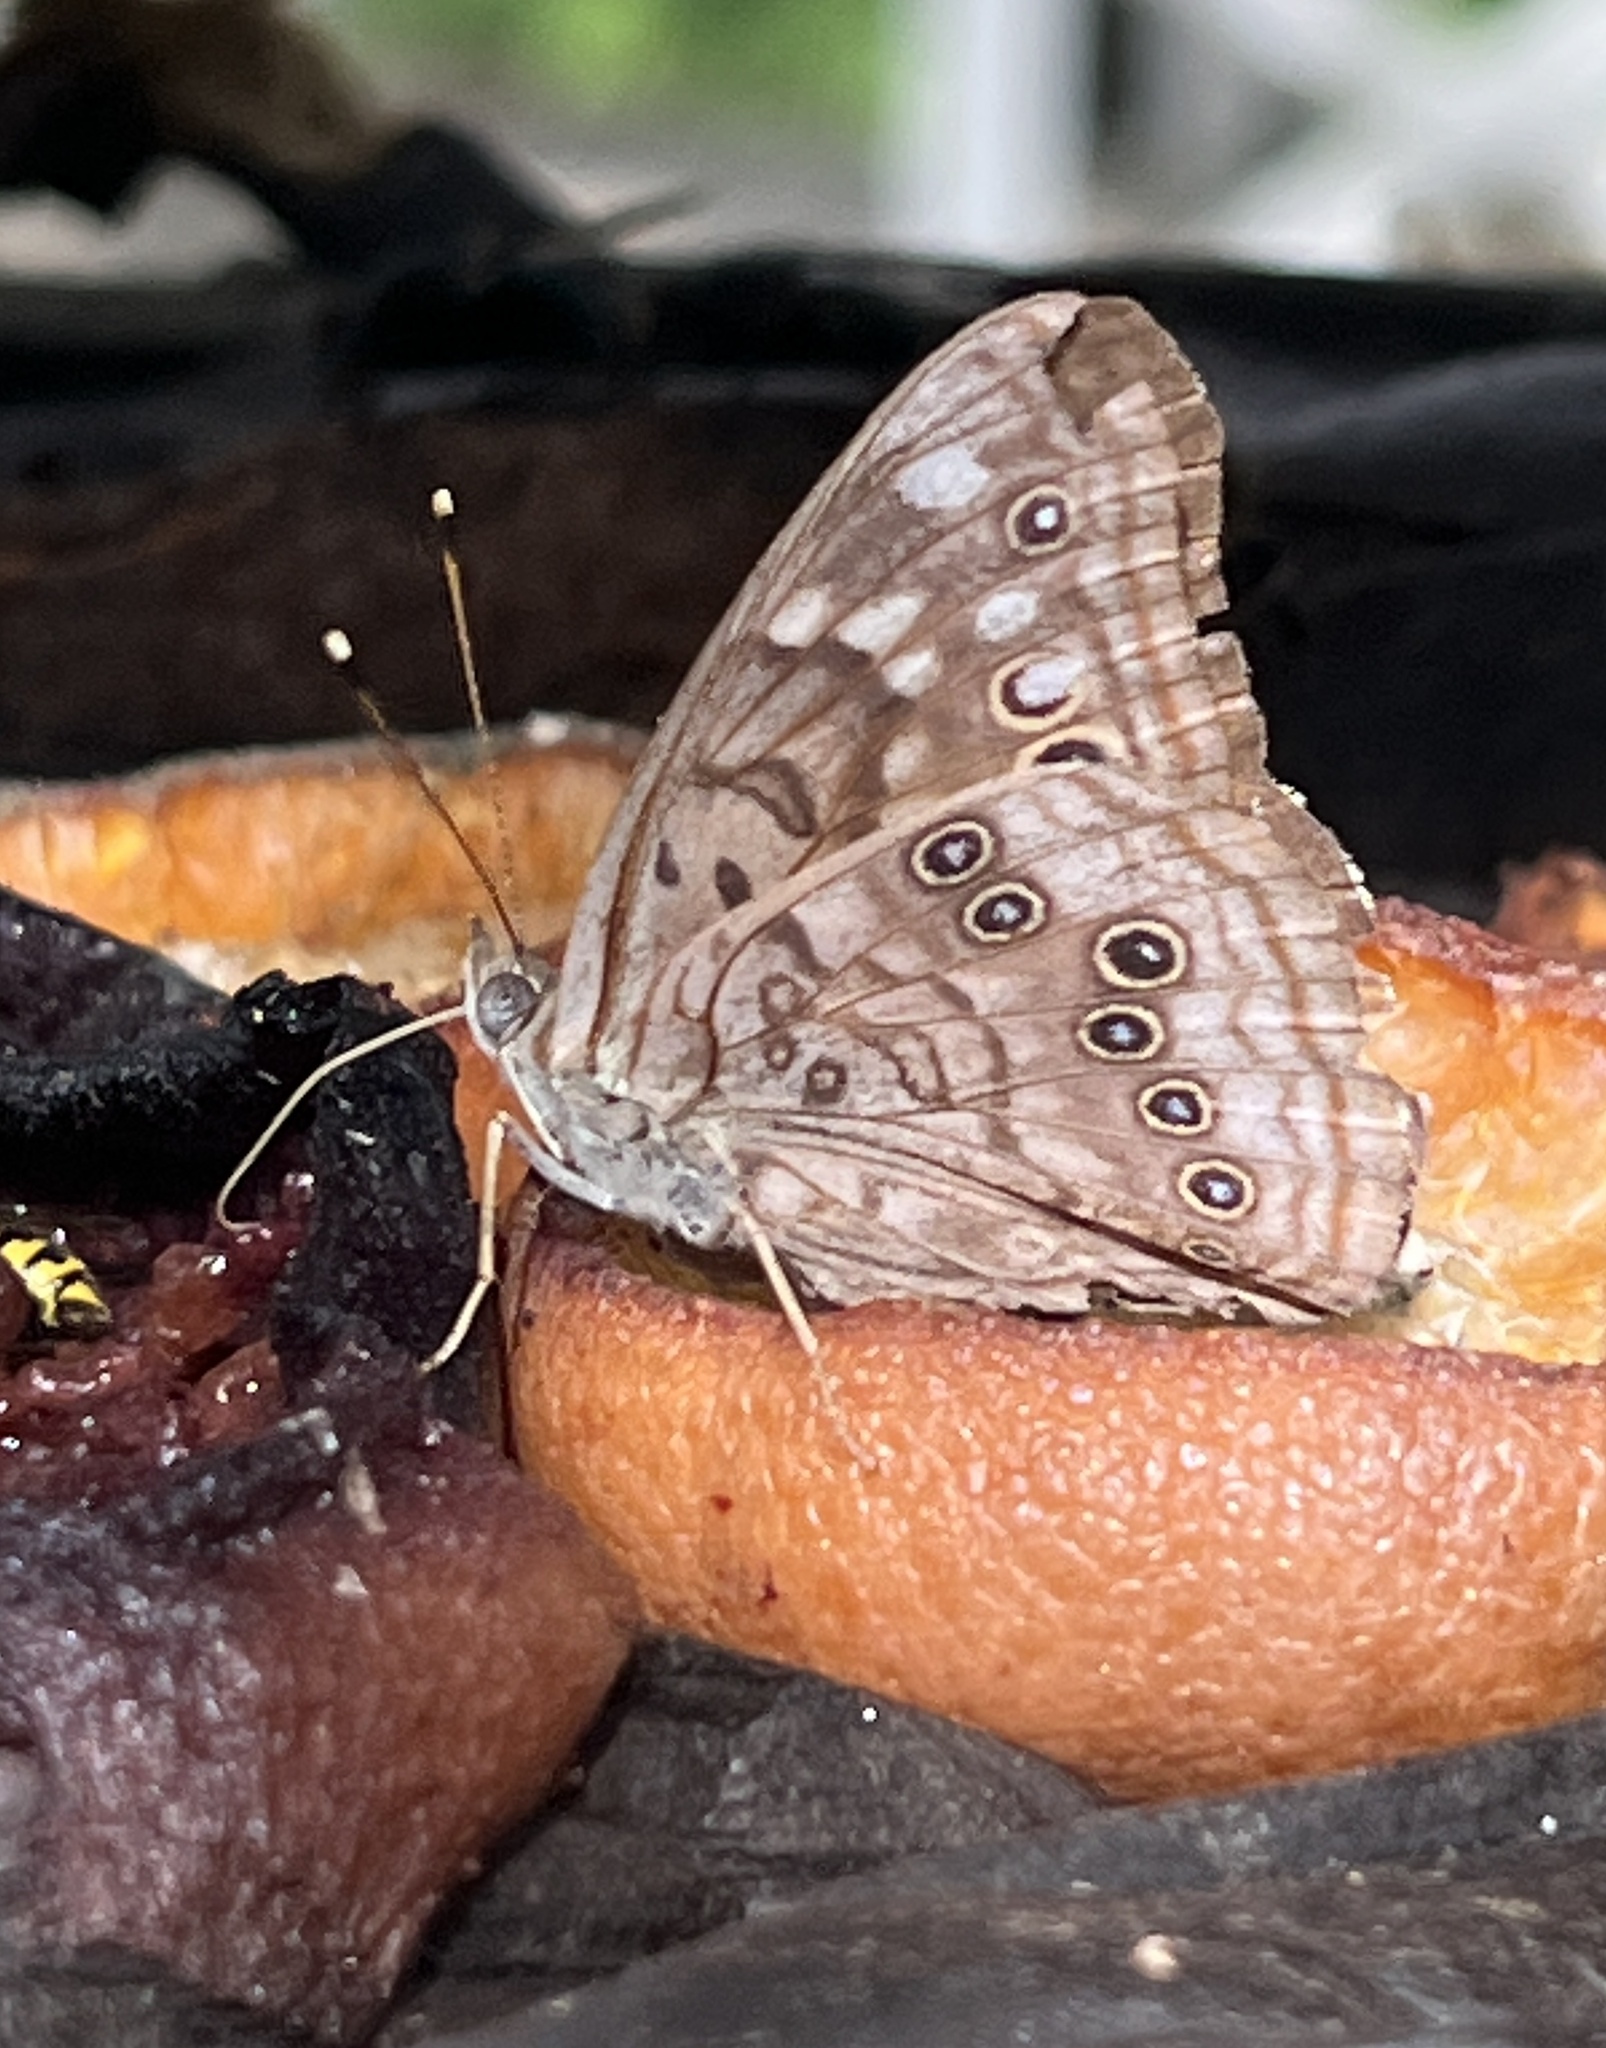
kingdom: Animalia
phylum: Arthropoda
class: Insecta
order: Lepidoptera
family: Nymphalidae
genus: Asterocampa
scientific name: Asterocampa celtis
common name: Hackberry emperor
